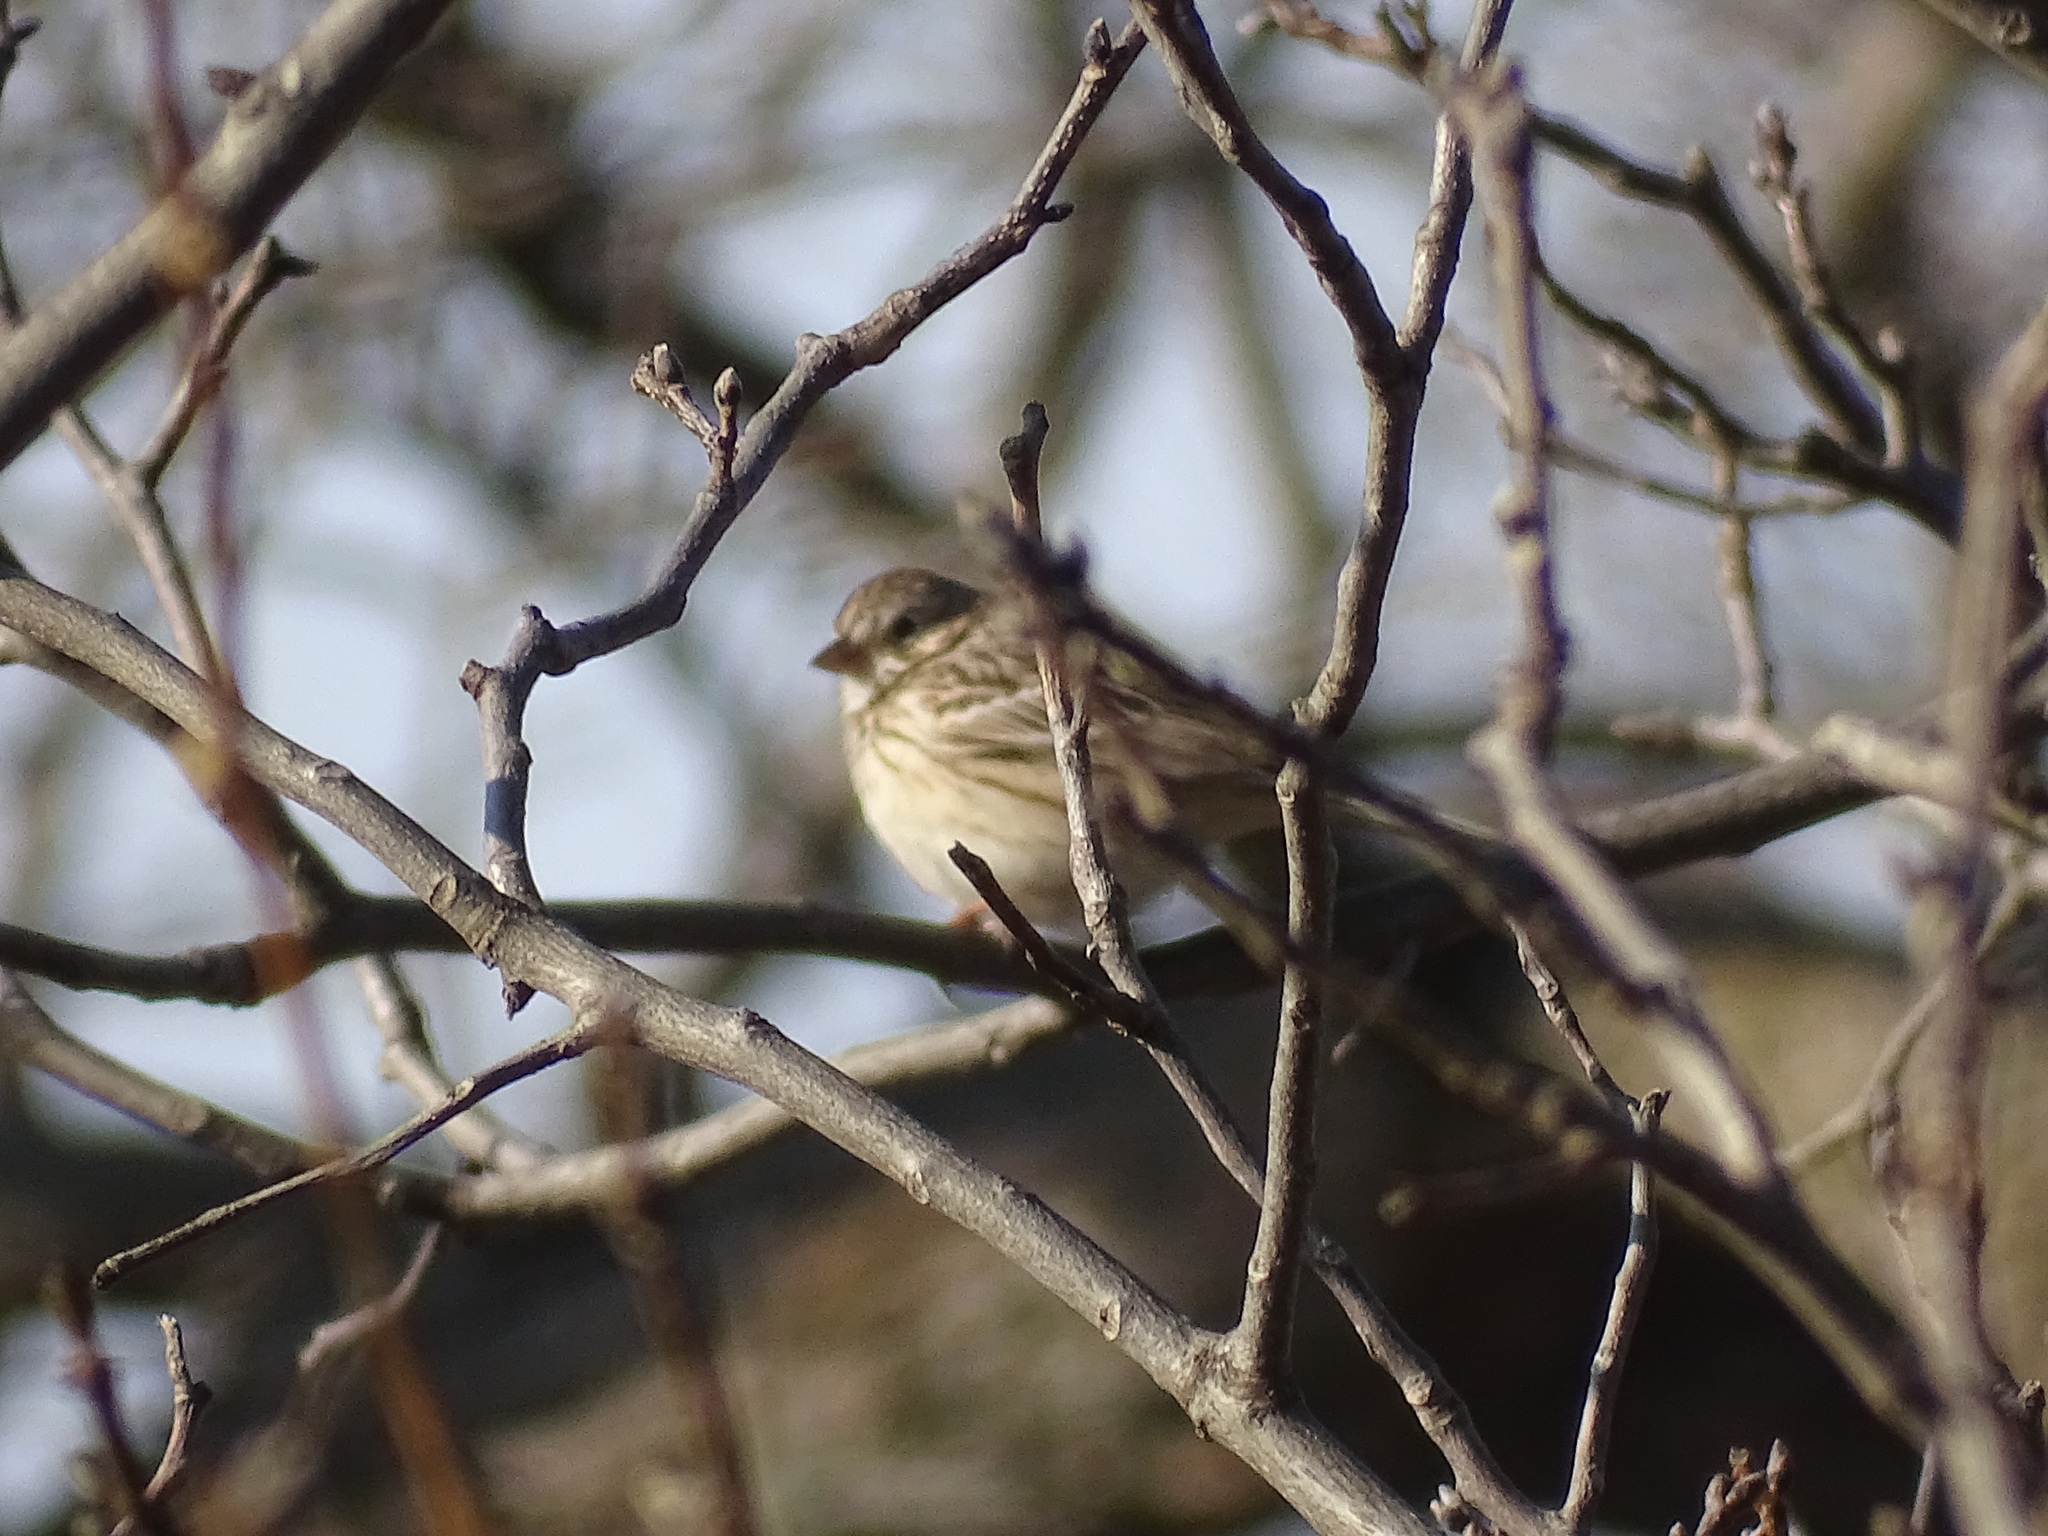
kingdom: Animalia
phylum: Chordata
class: Aves
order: Passeriformes
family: Passerellidae
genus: Pooecetes
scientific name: Pooecetes gramineus
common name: Vesper sparrow
